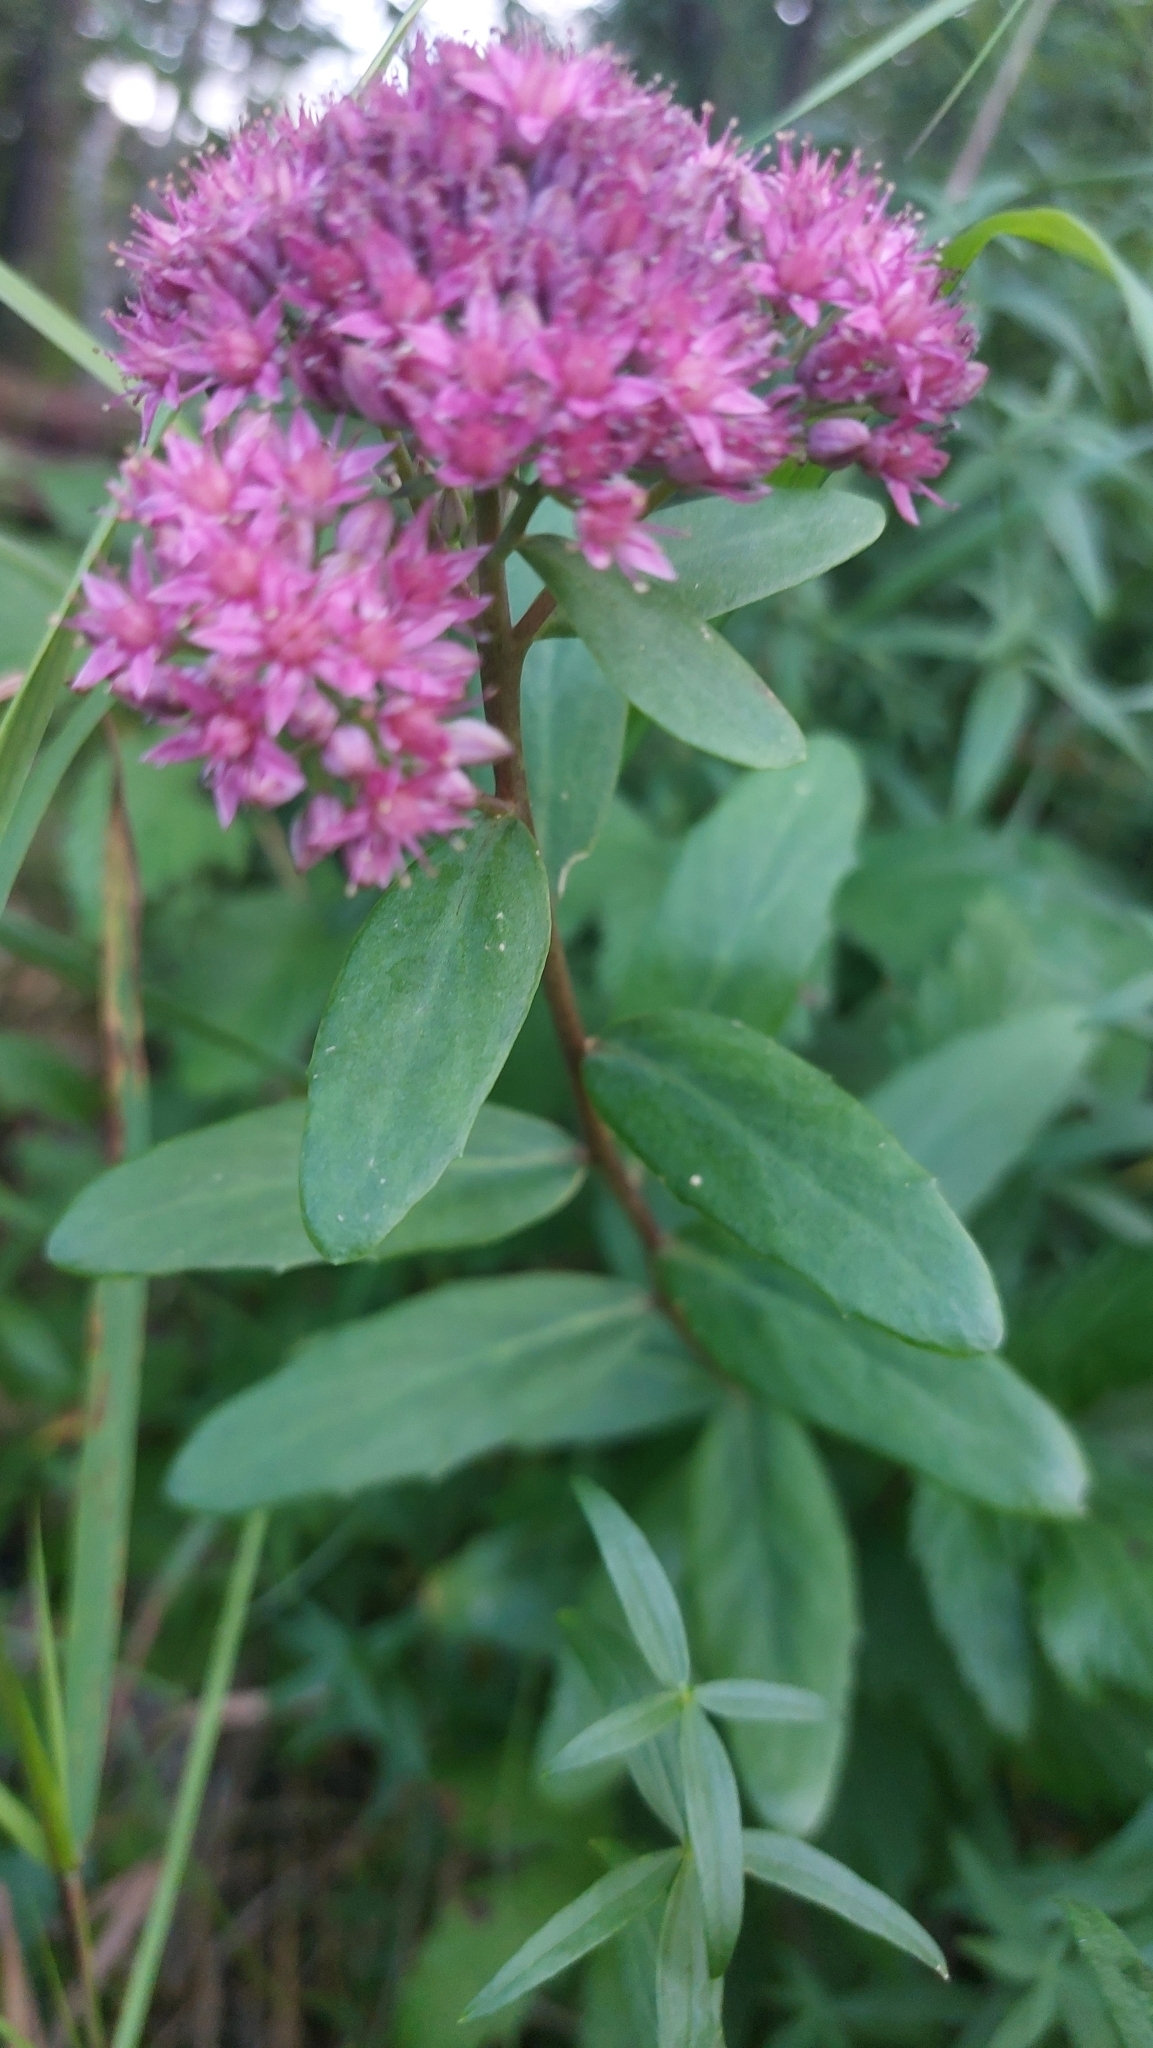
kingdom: Plantae
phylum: Tracheophyta
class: Magnoliopsida
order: Saxifragales
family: Crassulaceae
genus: Hylotelephium
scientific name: Hylotelephium telephium
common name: Live-forever
